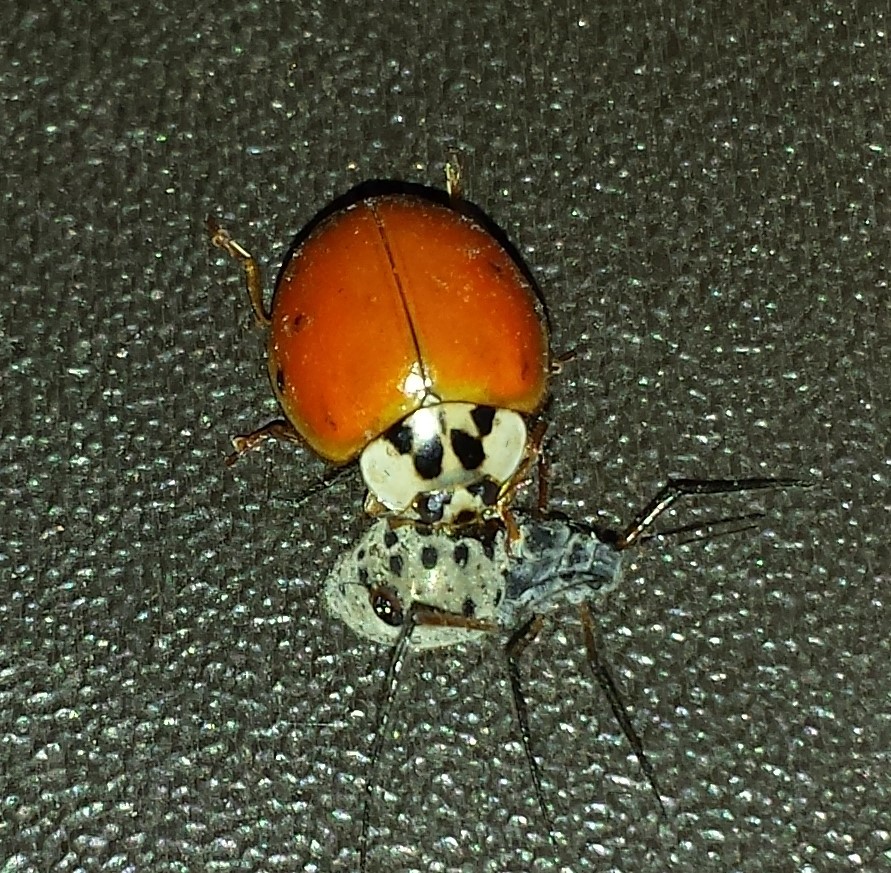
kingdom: Animalia
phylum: Arthropoda
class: Insecta
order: Coleoptera
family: Coccinellidae
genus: Harmonia
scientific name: Harmonia axyridis
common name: Harlequin ladybird
